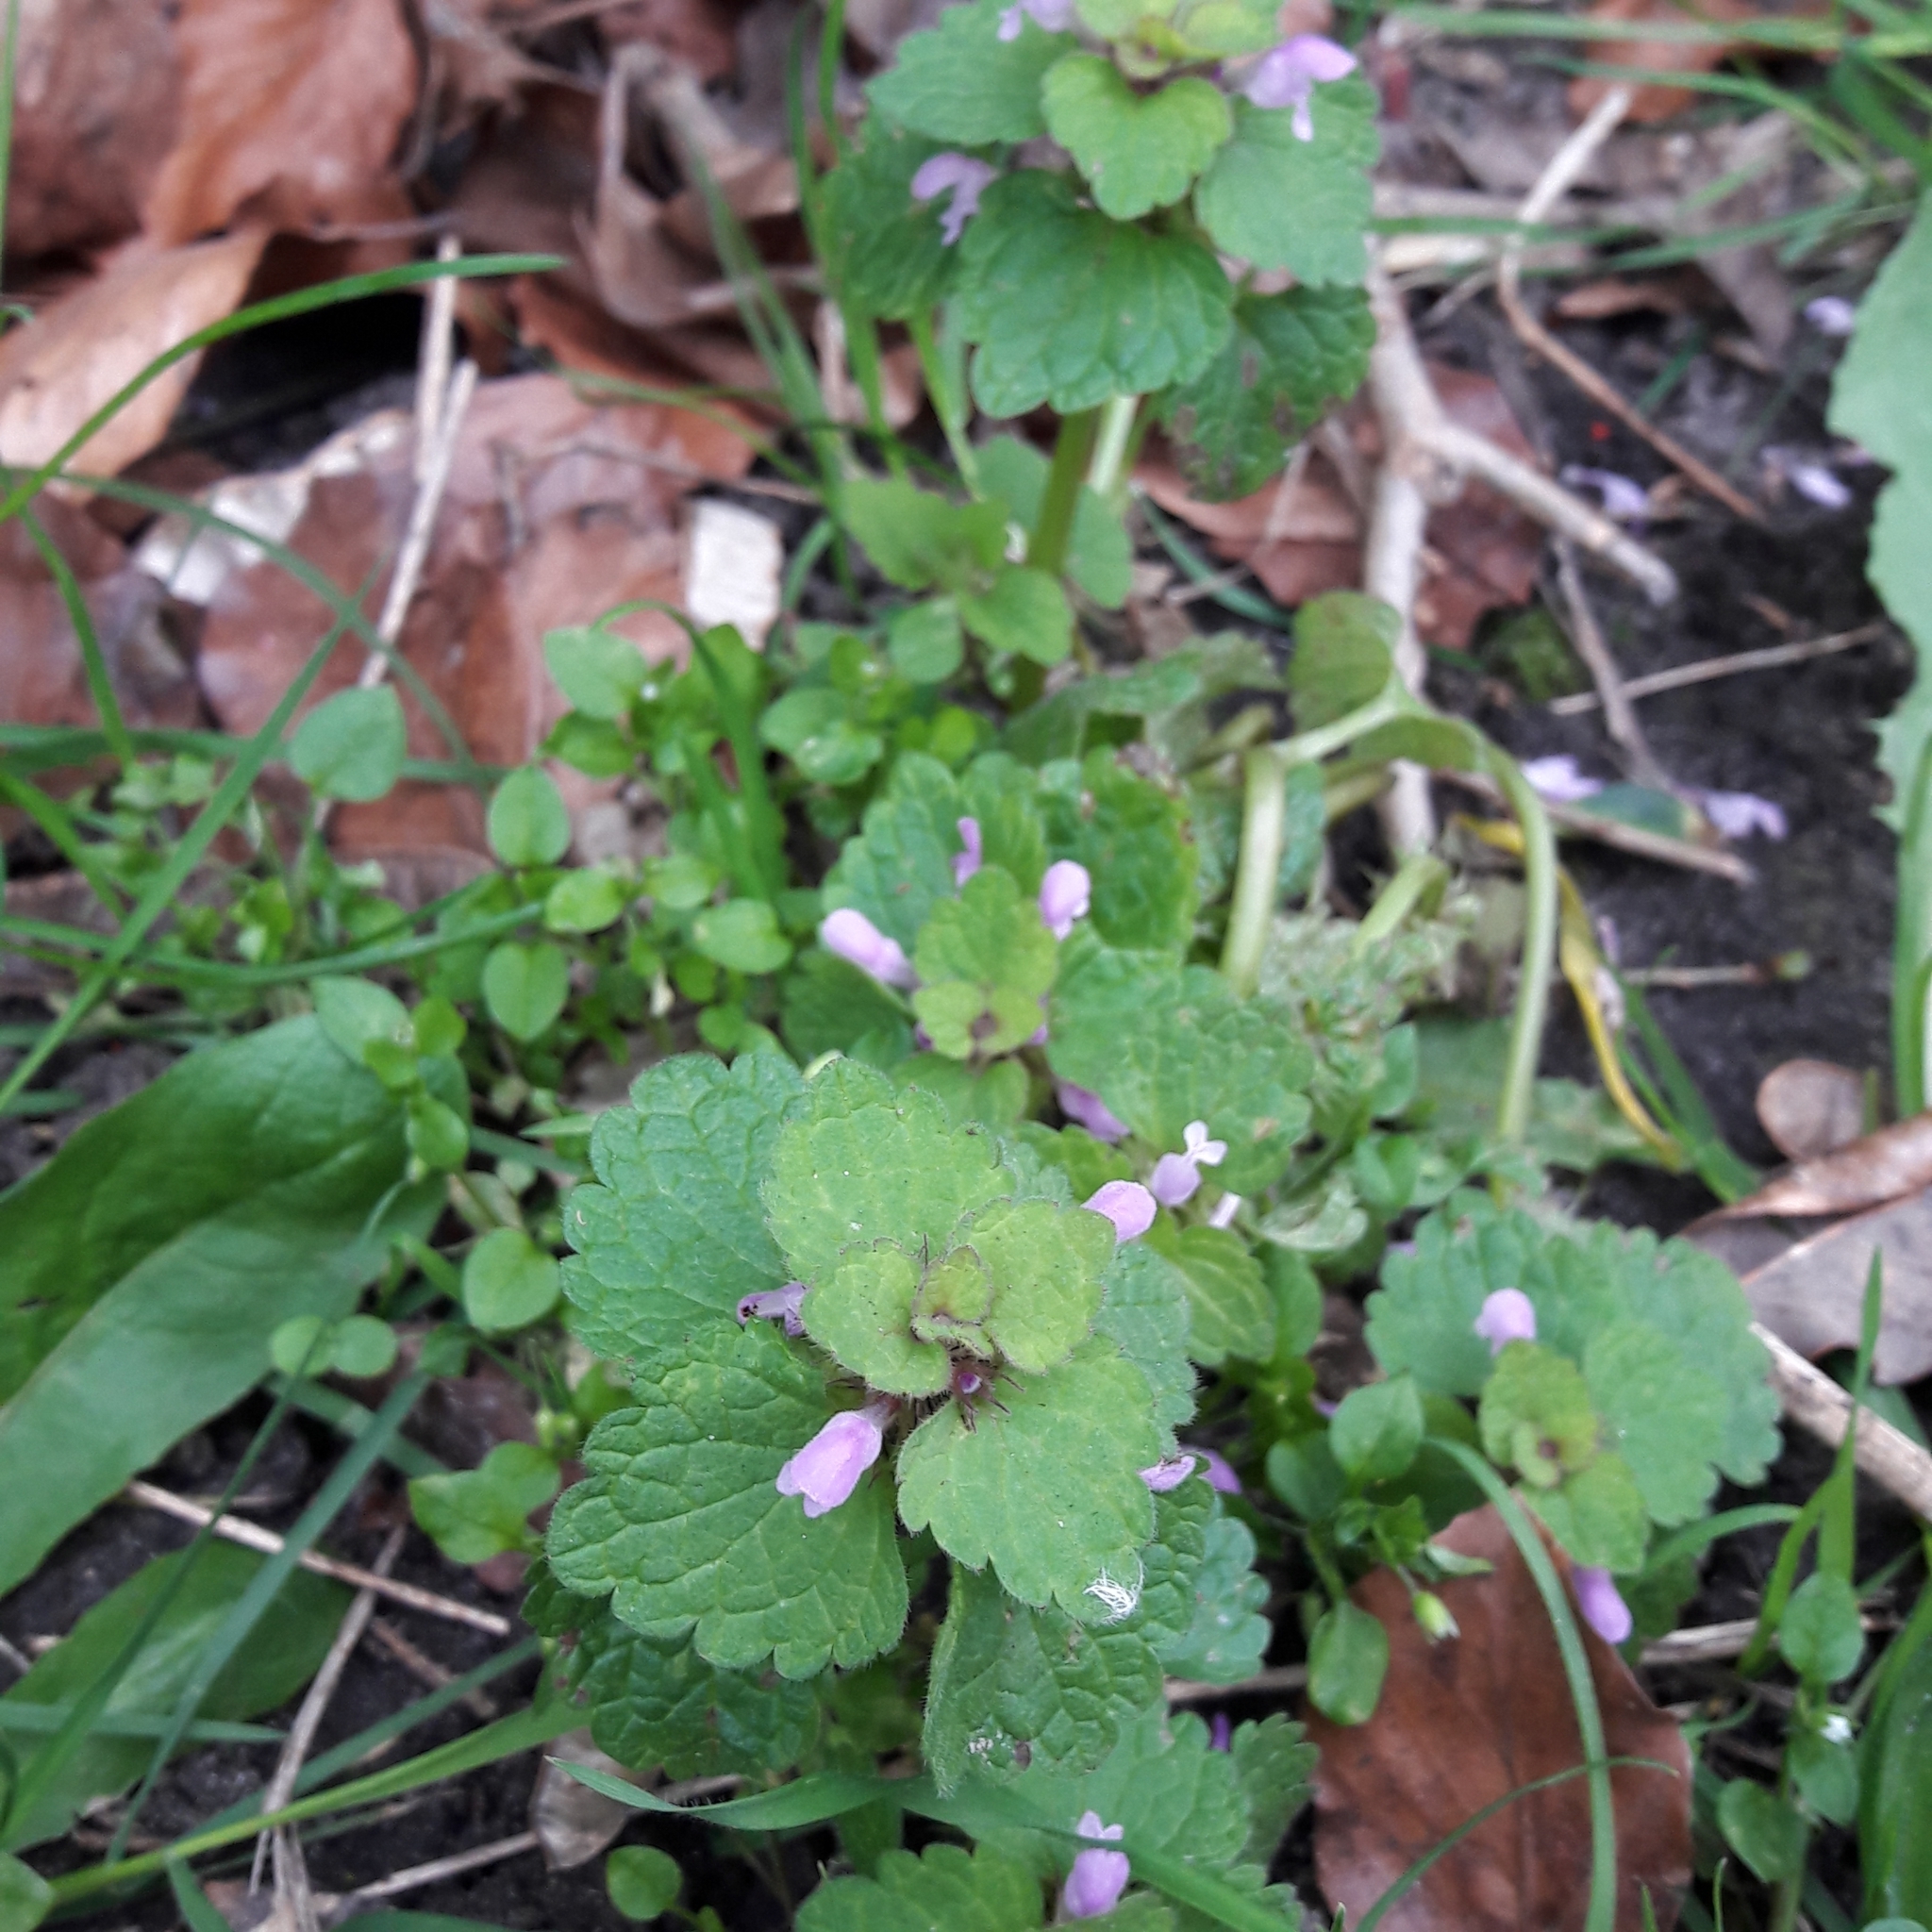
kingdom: Plantae
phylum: Tracheophyta
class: Magnoliopsida
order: Lamiales
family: Lamiaceae
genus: Lamium
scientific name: Lamium purpureum
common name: Red dead-nettle
